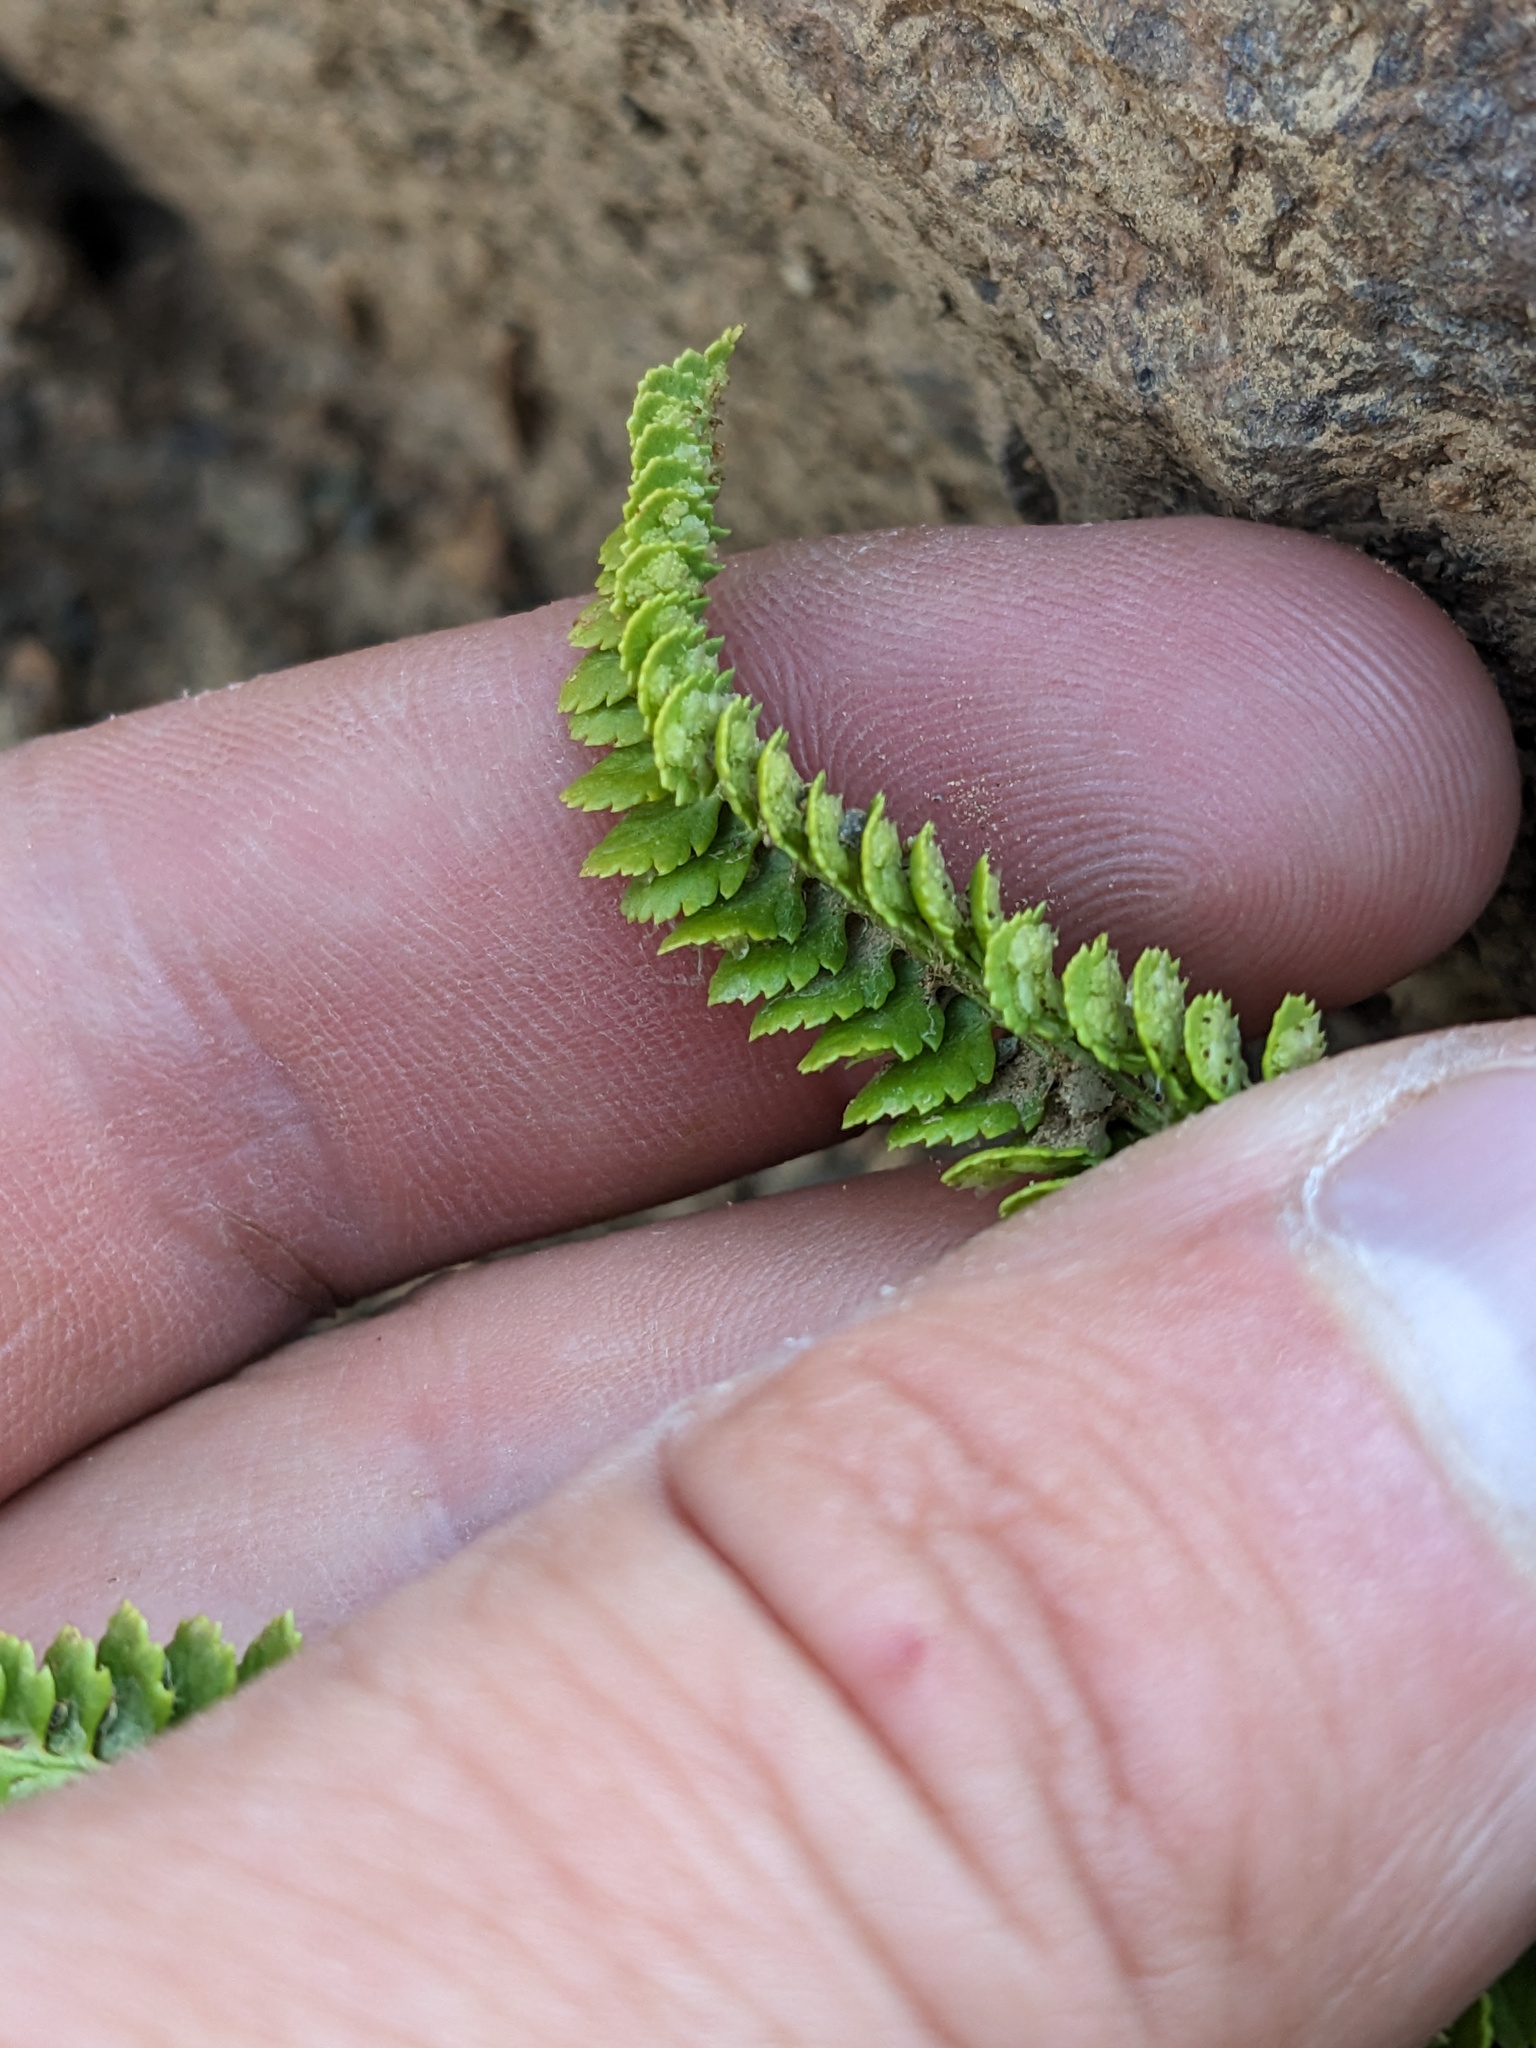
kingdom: Plantae
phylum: Tracheophyta
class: Polypodiopsida
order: Polypodiales
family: Dryopteridaceae
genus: Polystichum
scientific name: Polystichum kruckebergii
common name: Kruckeberg's holly fern
